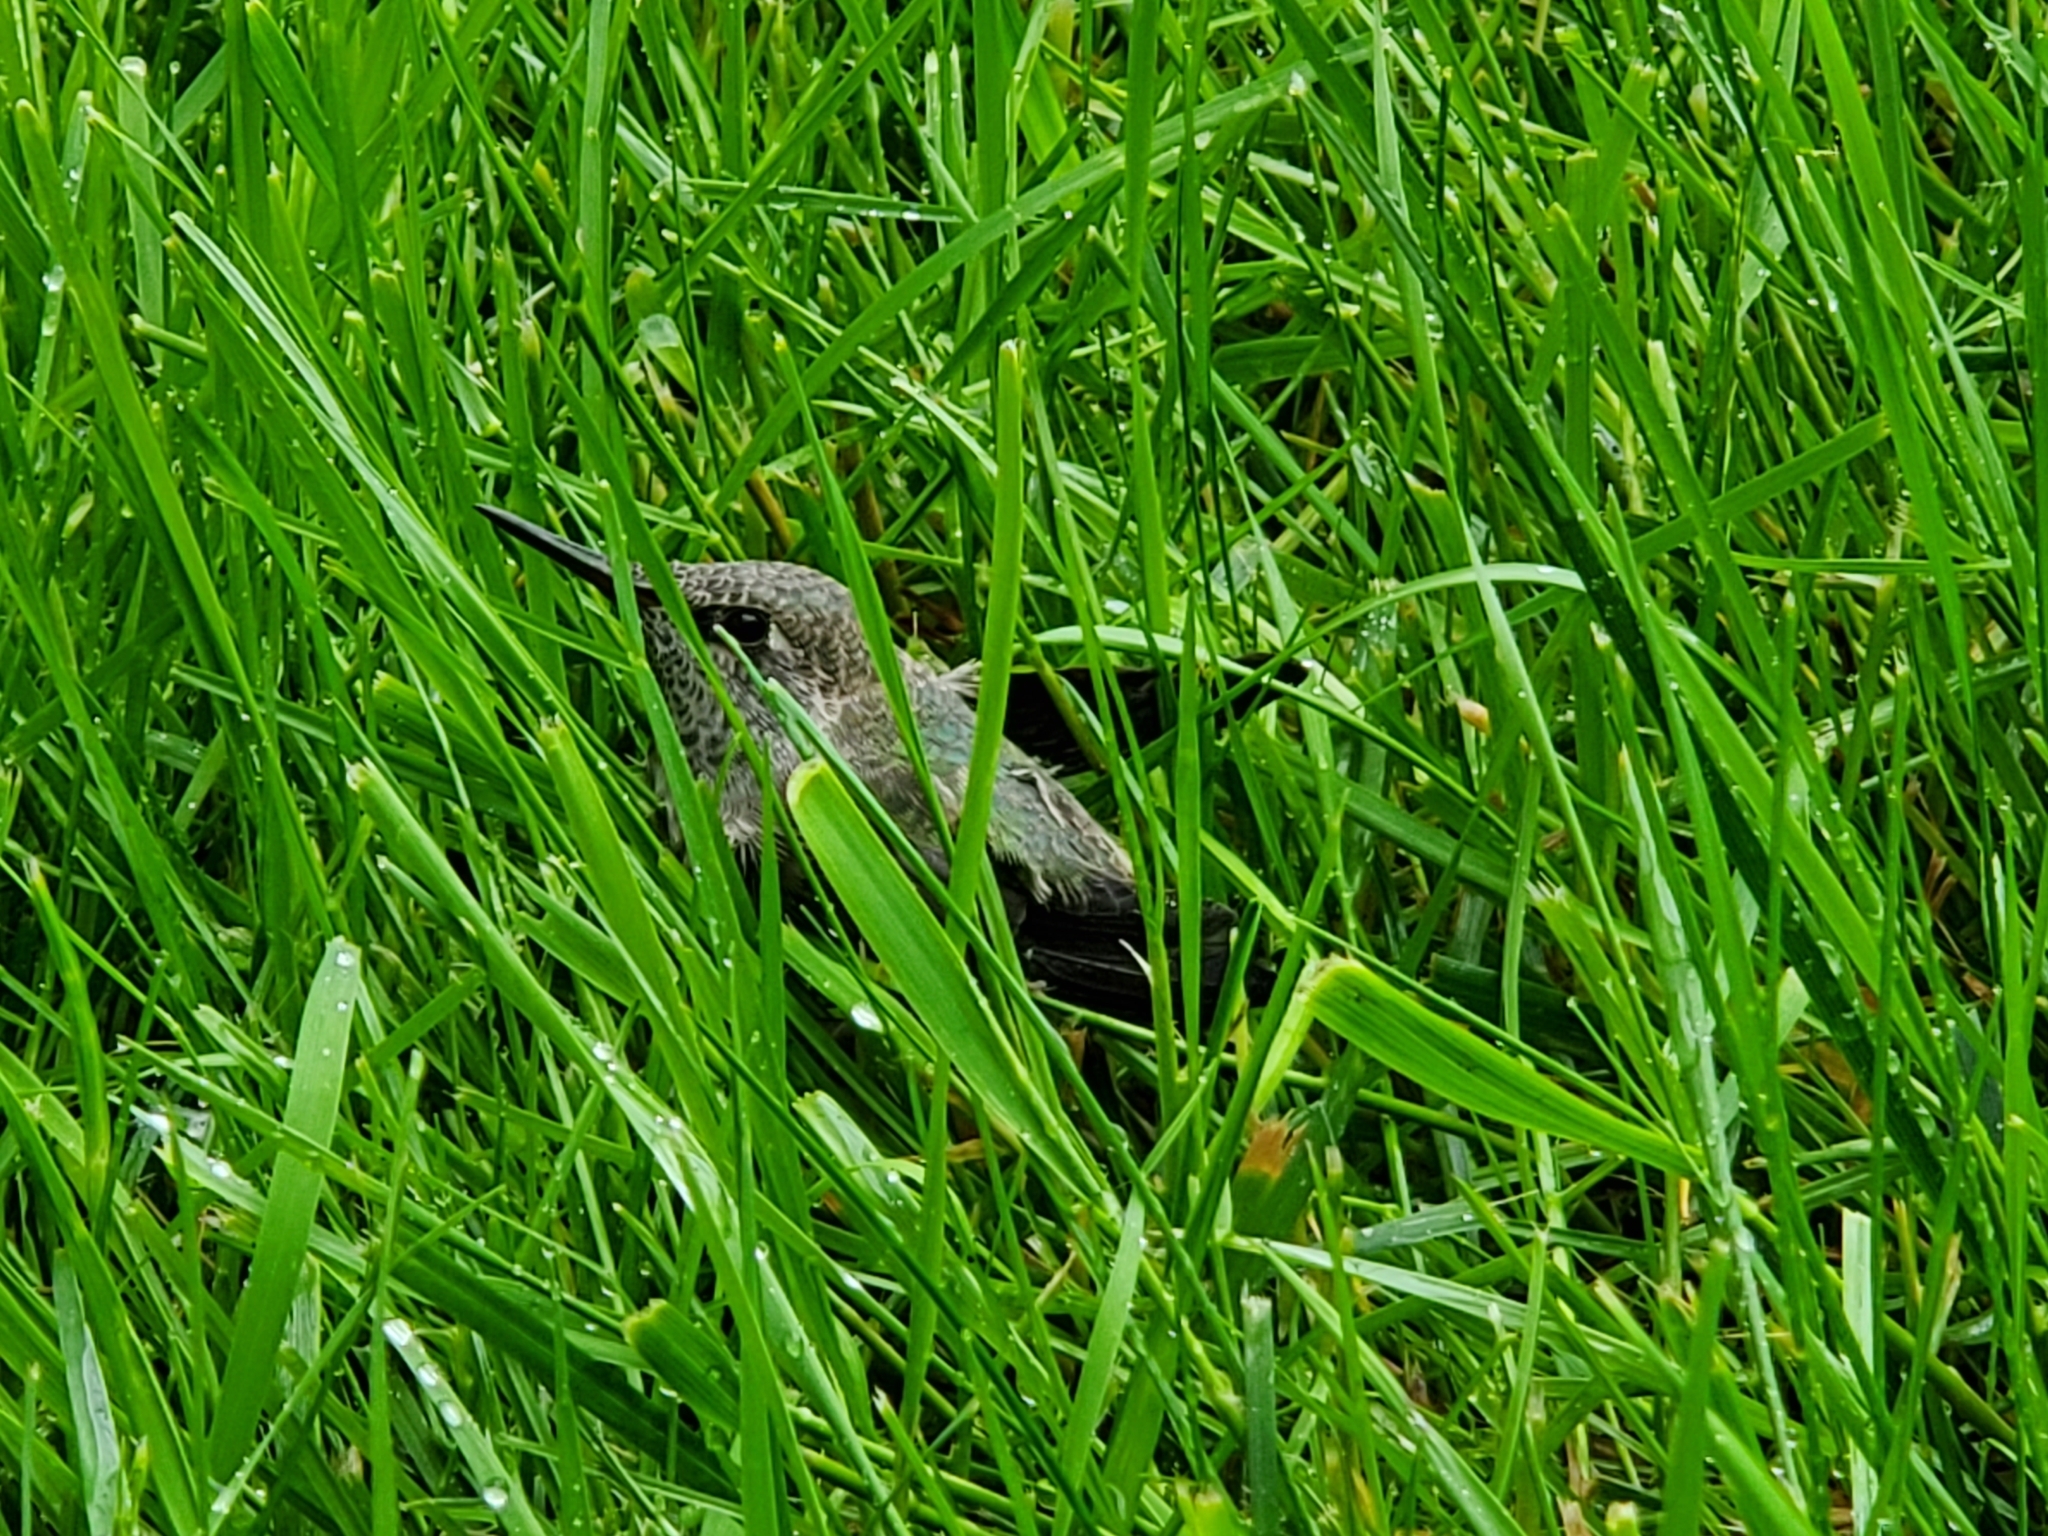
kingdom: Animalia
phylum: Chordata
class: Aves
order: Apodiformes
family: Trochilidae
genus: Calypte
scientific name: Calypte anna
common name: Anna's hummingbird
